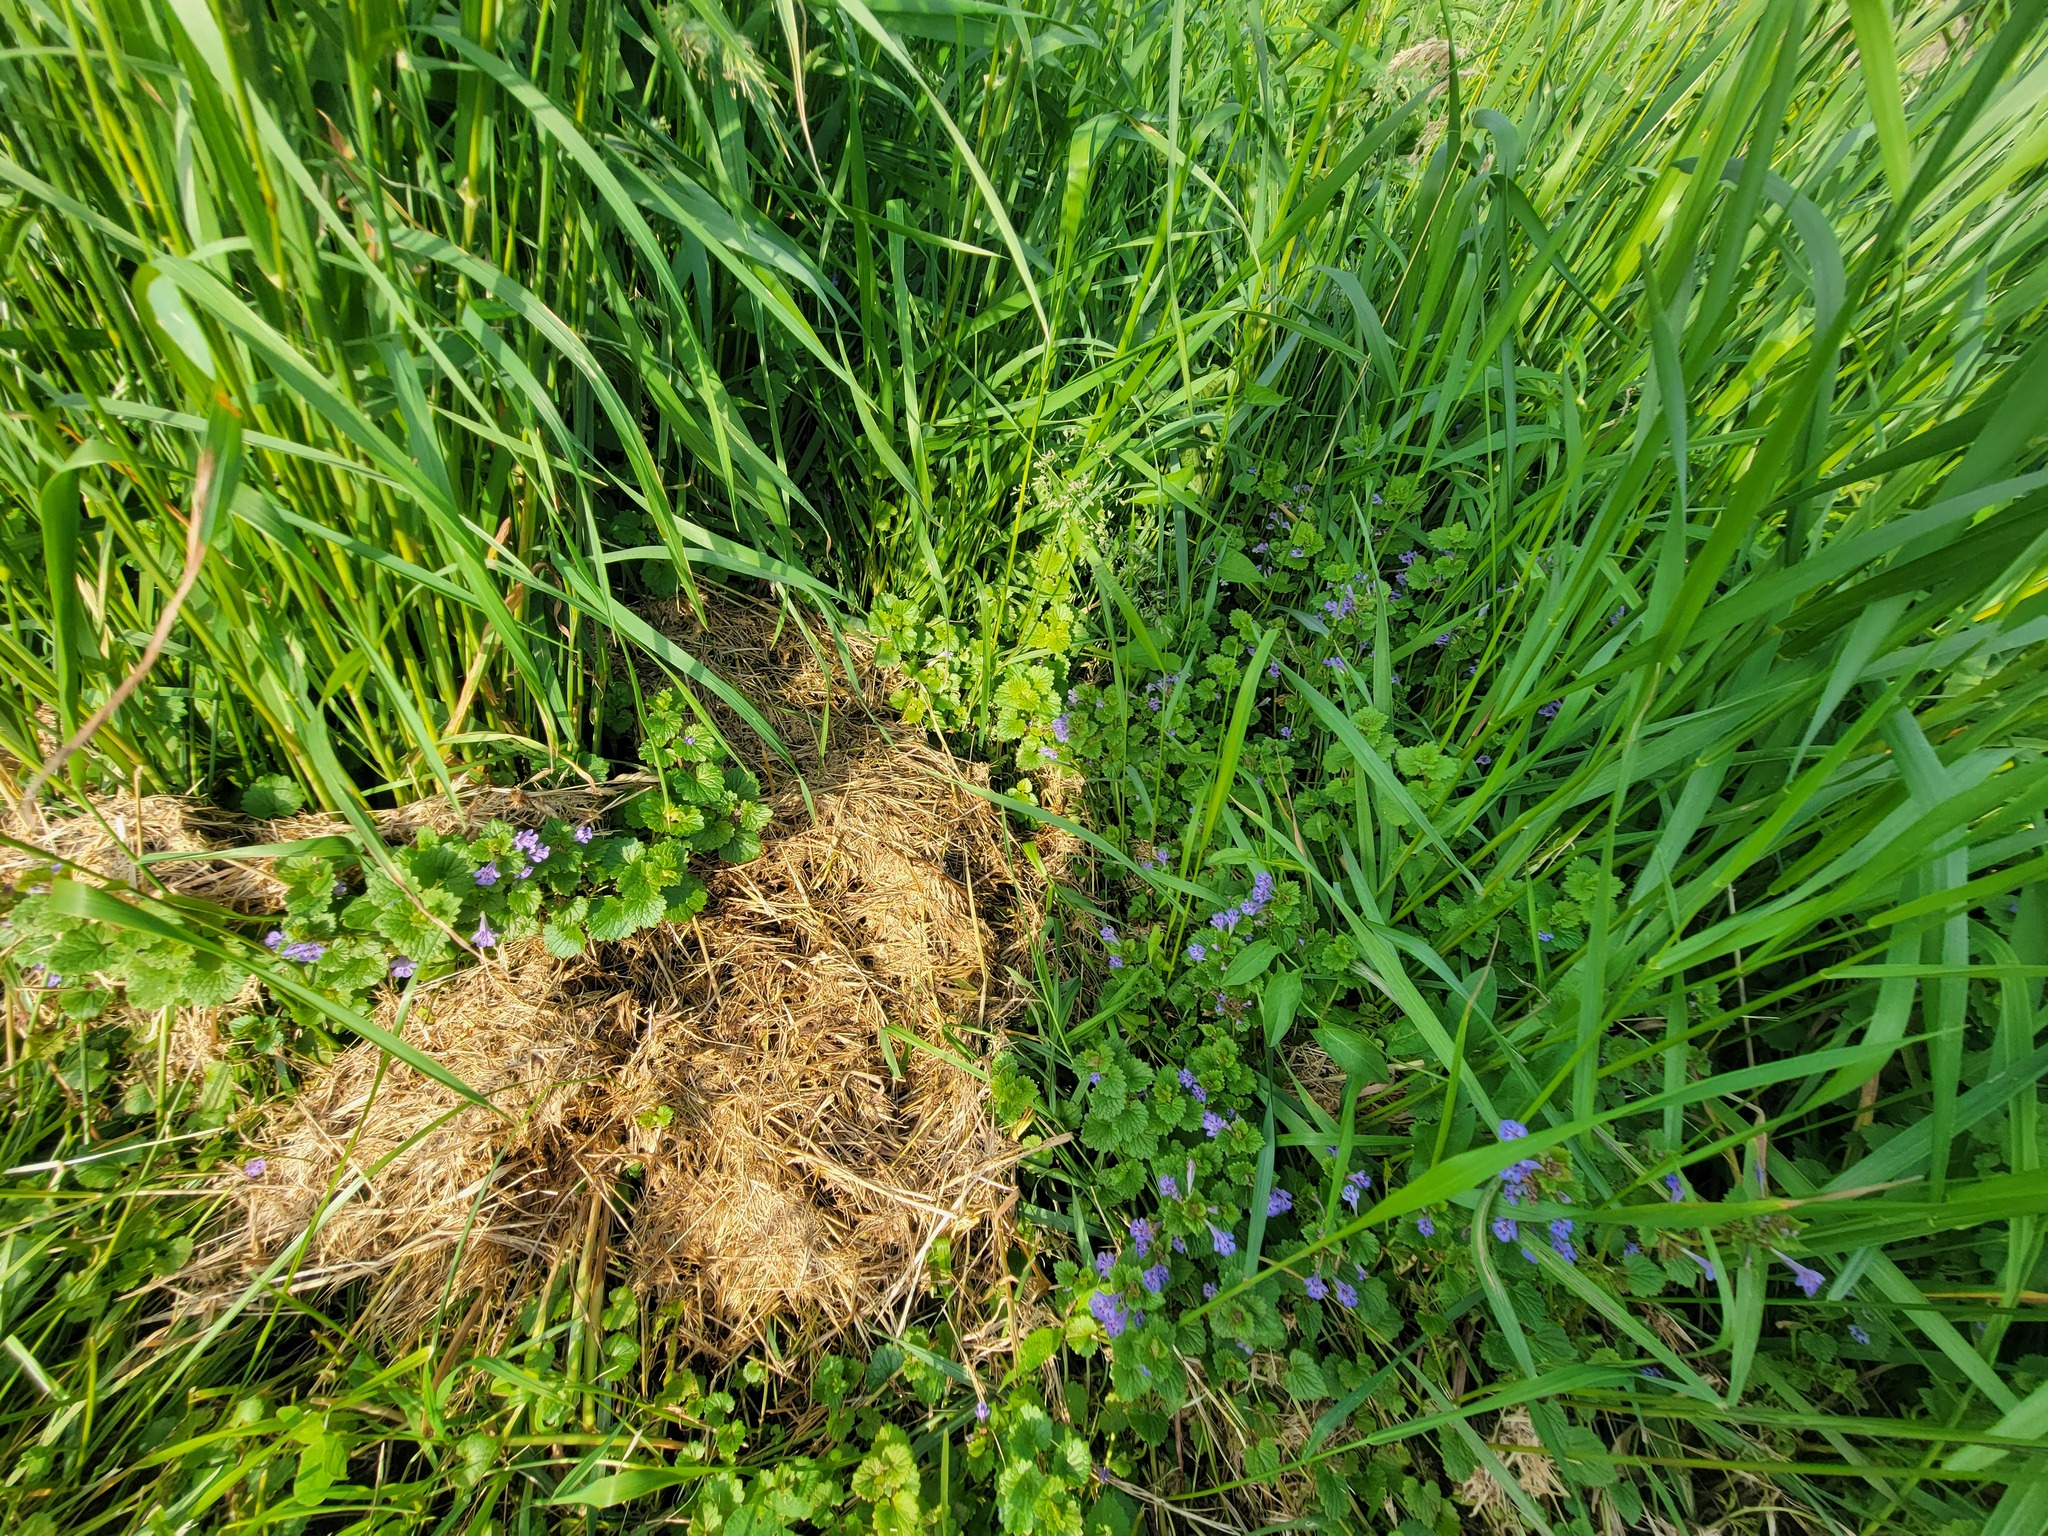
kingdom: Plantae
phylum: Tracheophyta
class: Magnoliopsida
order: Lamiales
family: Lamiaceae
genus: Glechoma
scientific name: Glechoma hederacea
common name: Ground ivy
